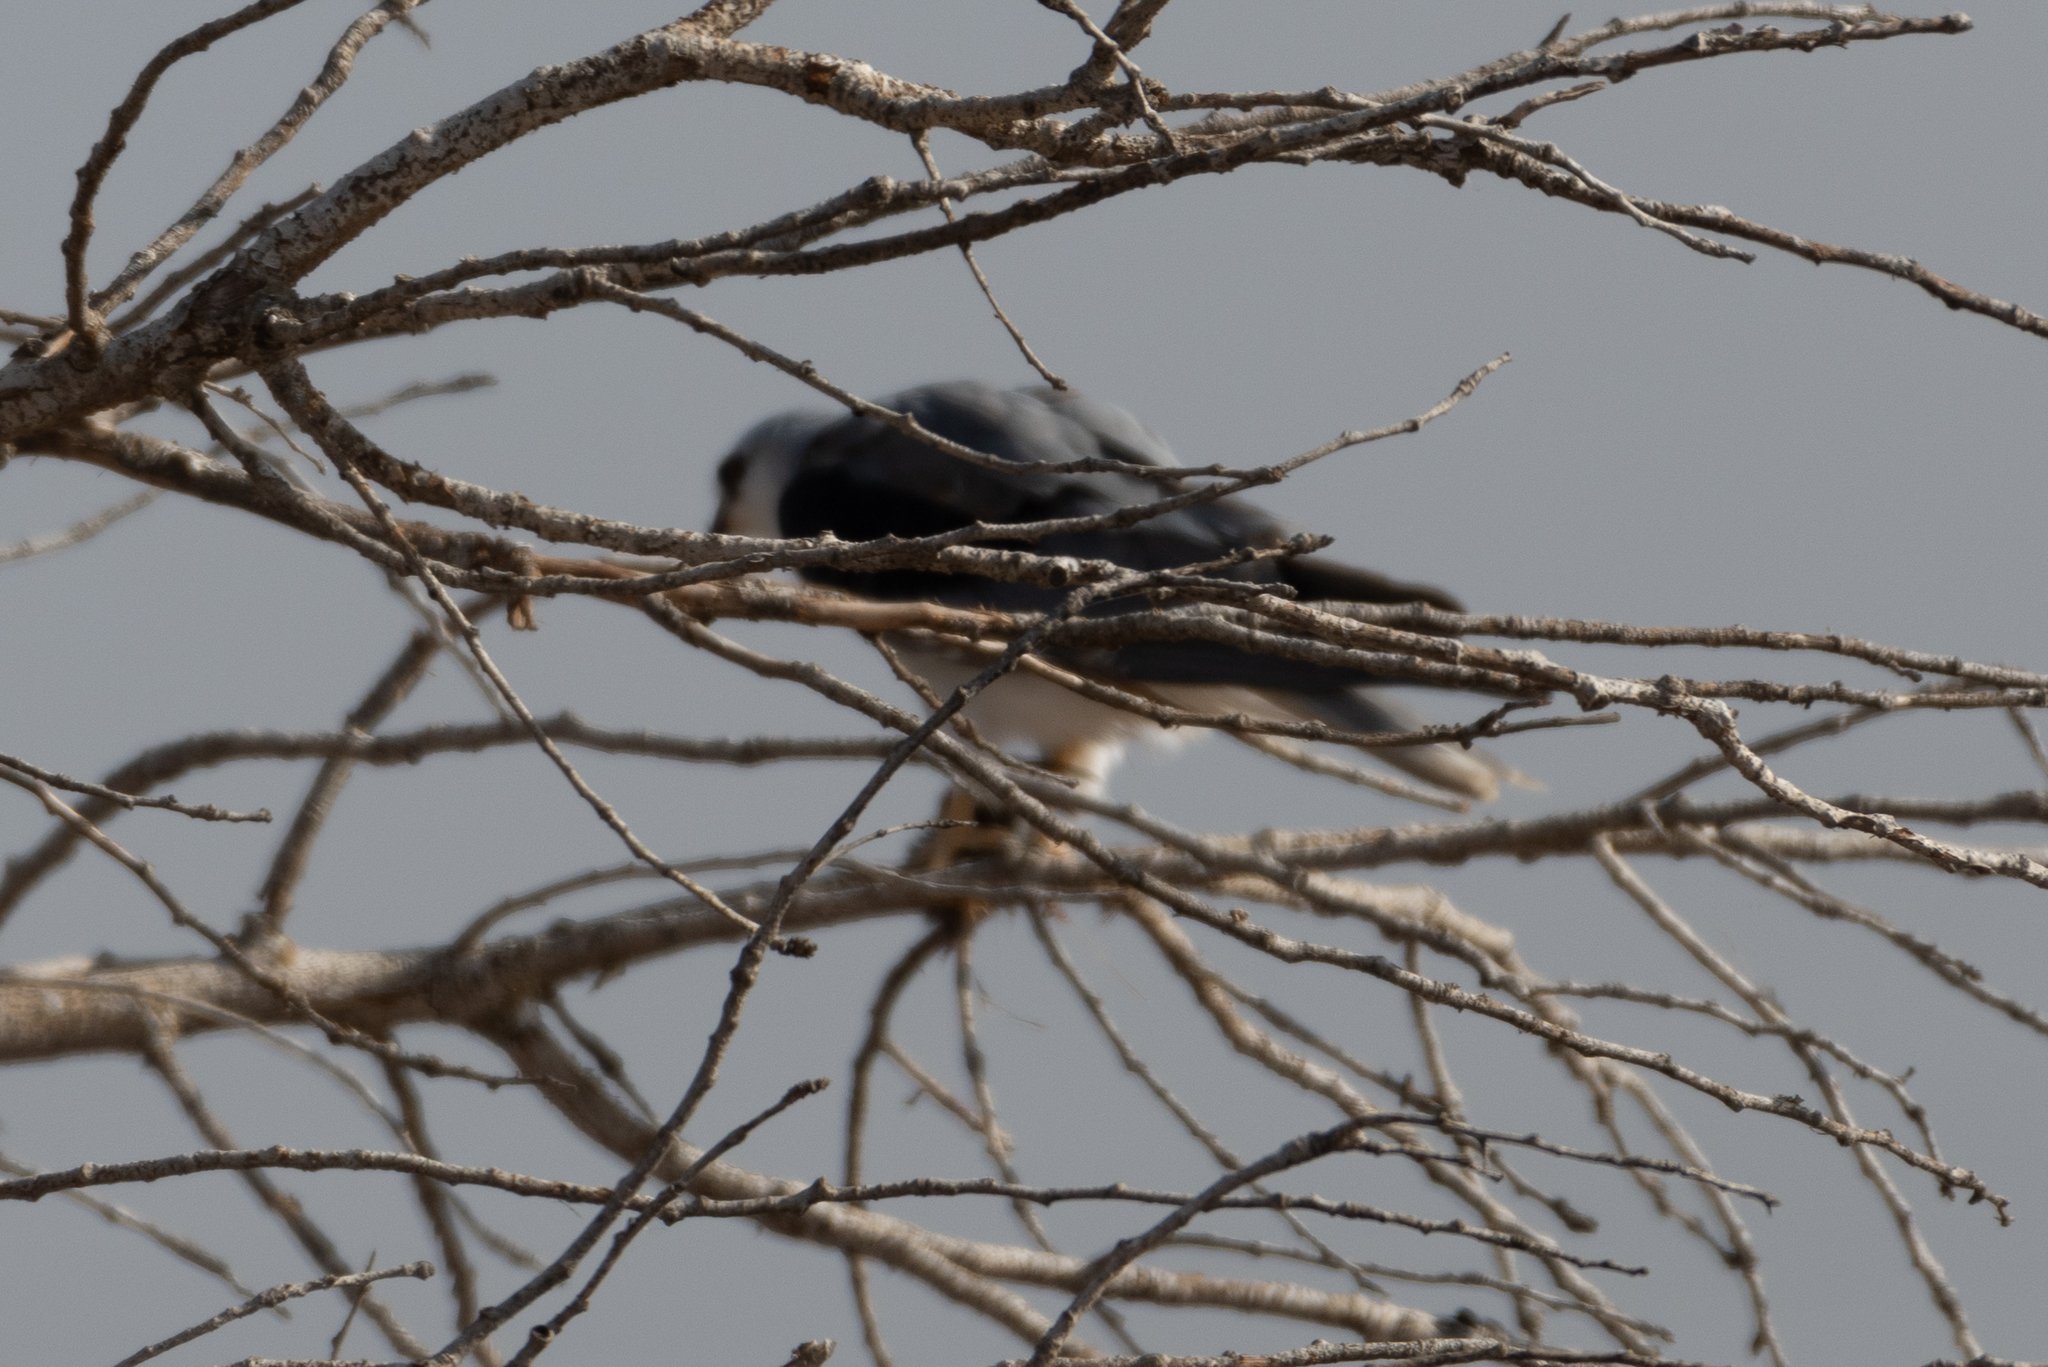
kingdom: Animalia
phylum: Chordata
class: Aves
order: Accipitriformes
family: Accipitridae
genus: Elanus
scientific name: Elanus leucurus
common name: White-tailed kite
